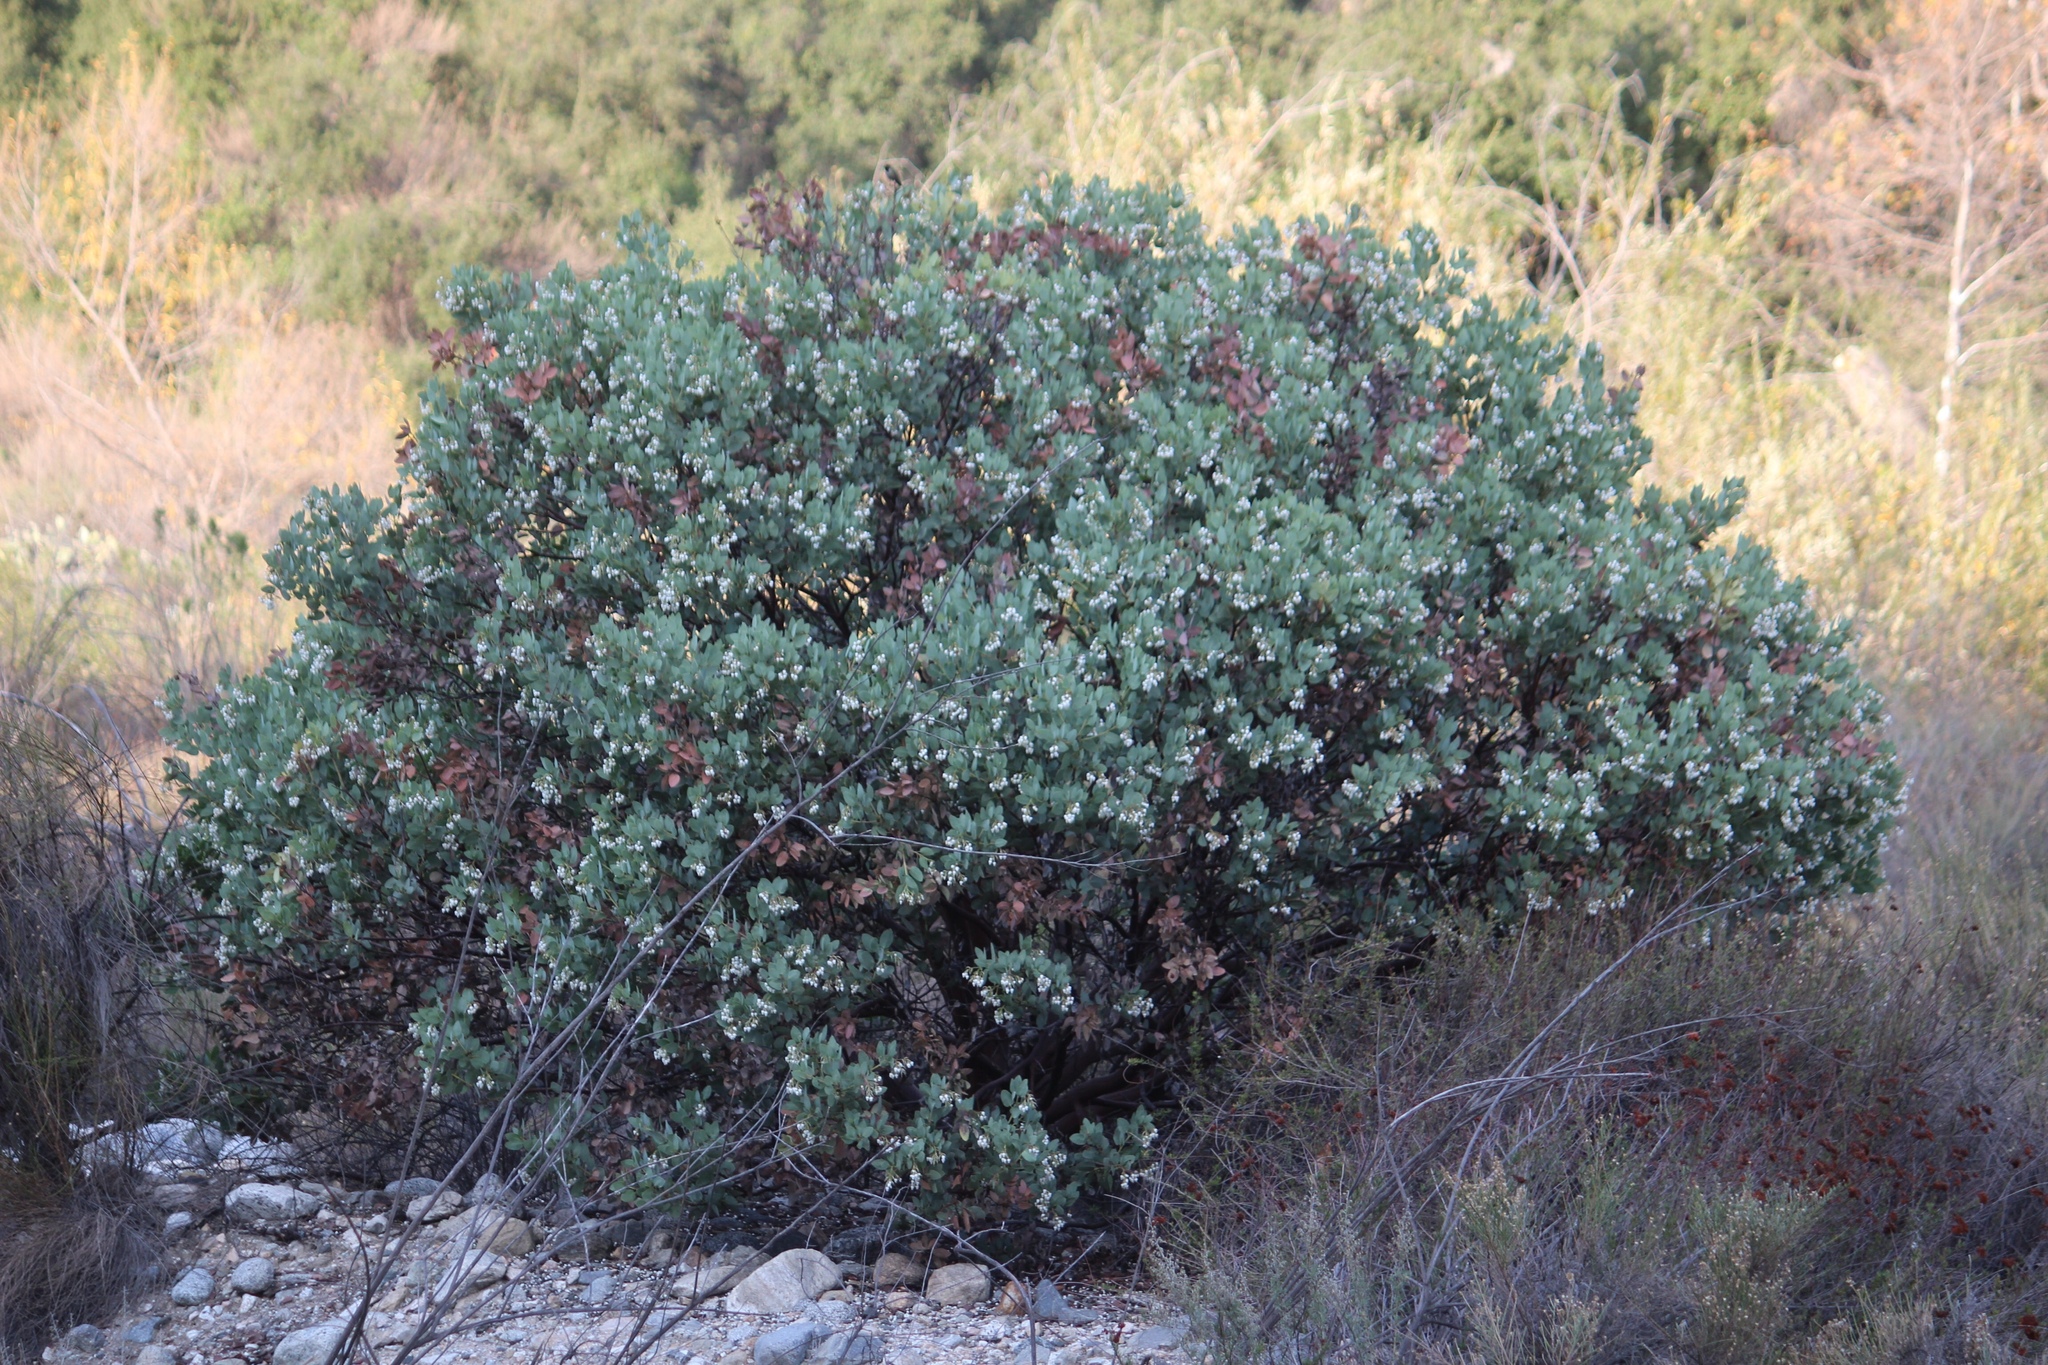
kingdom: Plantae
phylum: Tracheophyta
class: Magnoliopsida
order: Ericales
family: Ericaceae
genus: Arctostaphylos
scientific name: Arctostaphylos glauca
